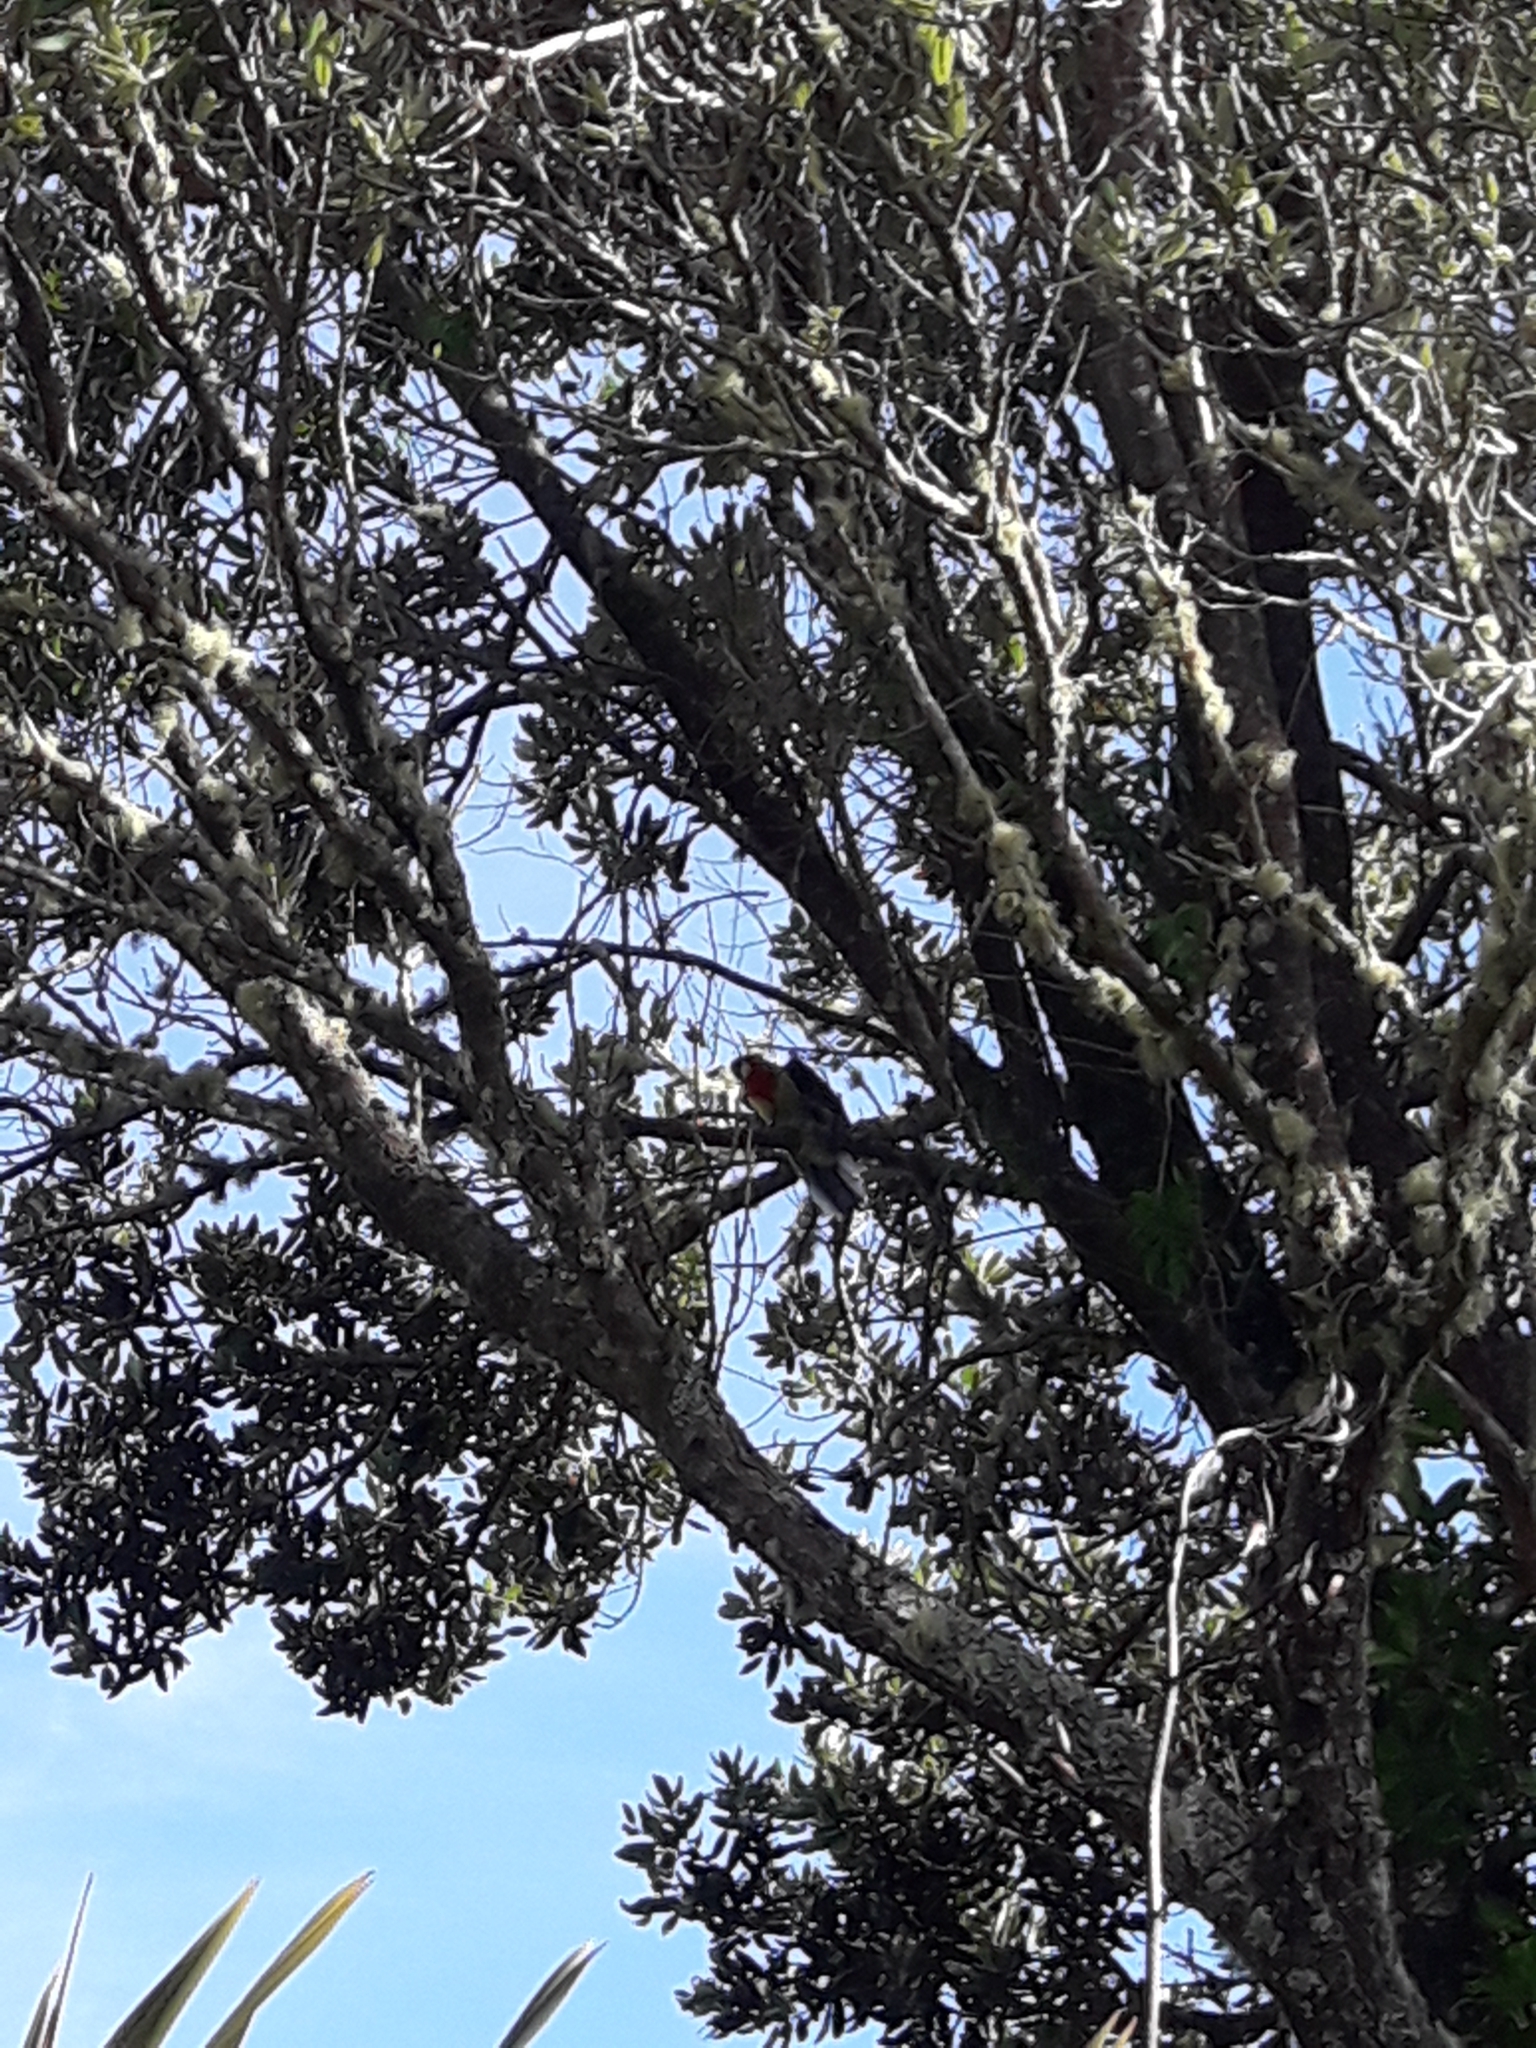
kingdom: Animalia
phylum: Chordata
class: Aves
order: Psittaciformes
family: Psittacidae
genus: Platycercus
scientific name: Platycercus eximius
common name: Eastern rosella
